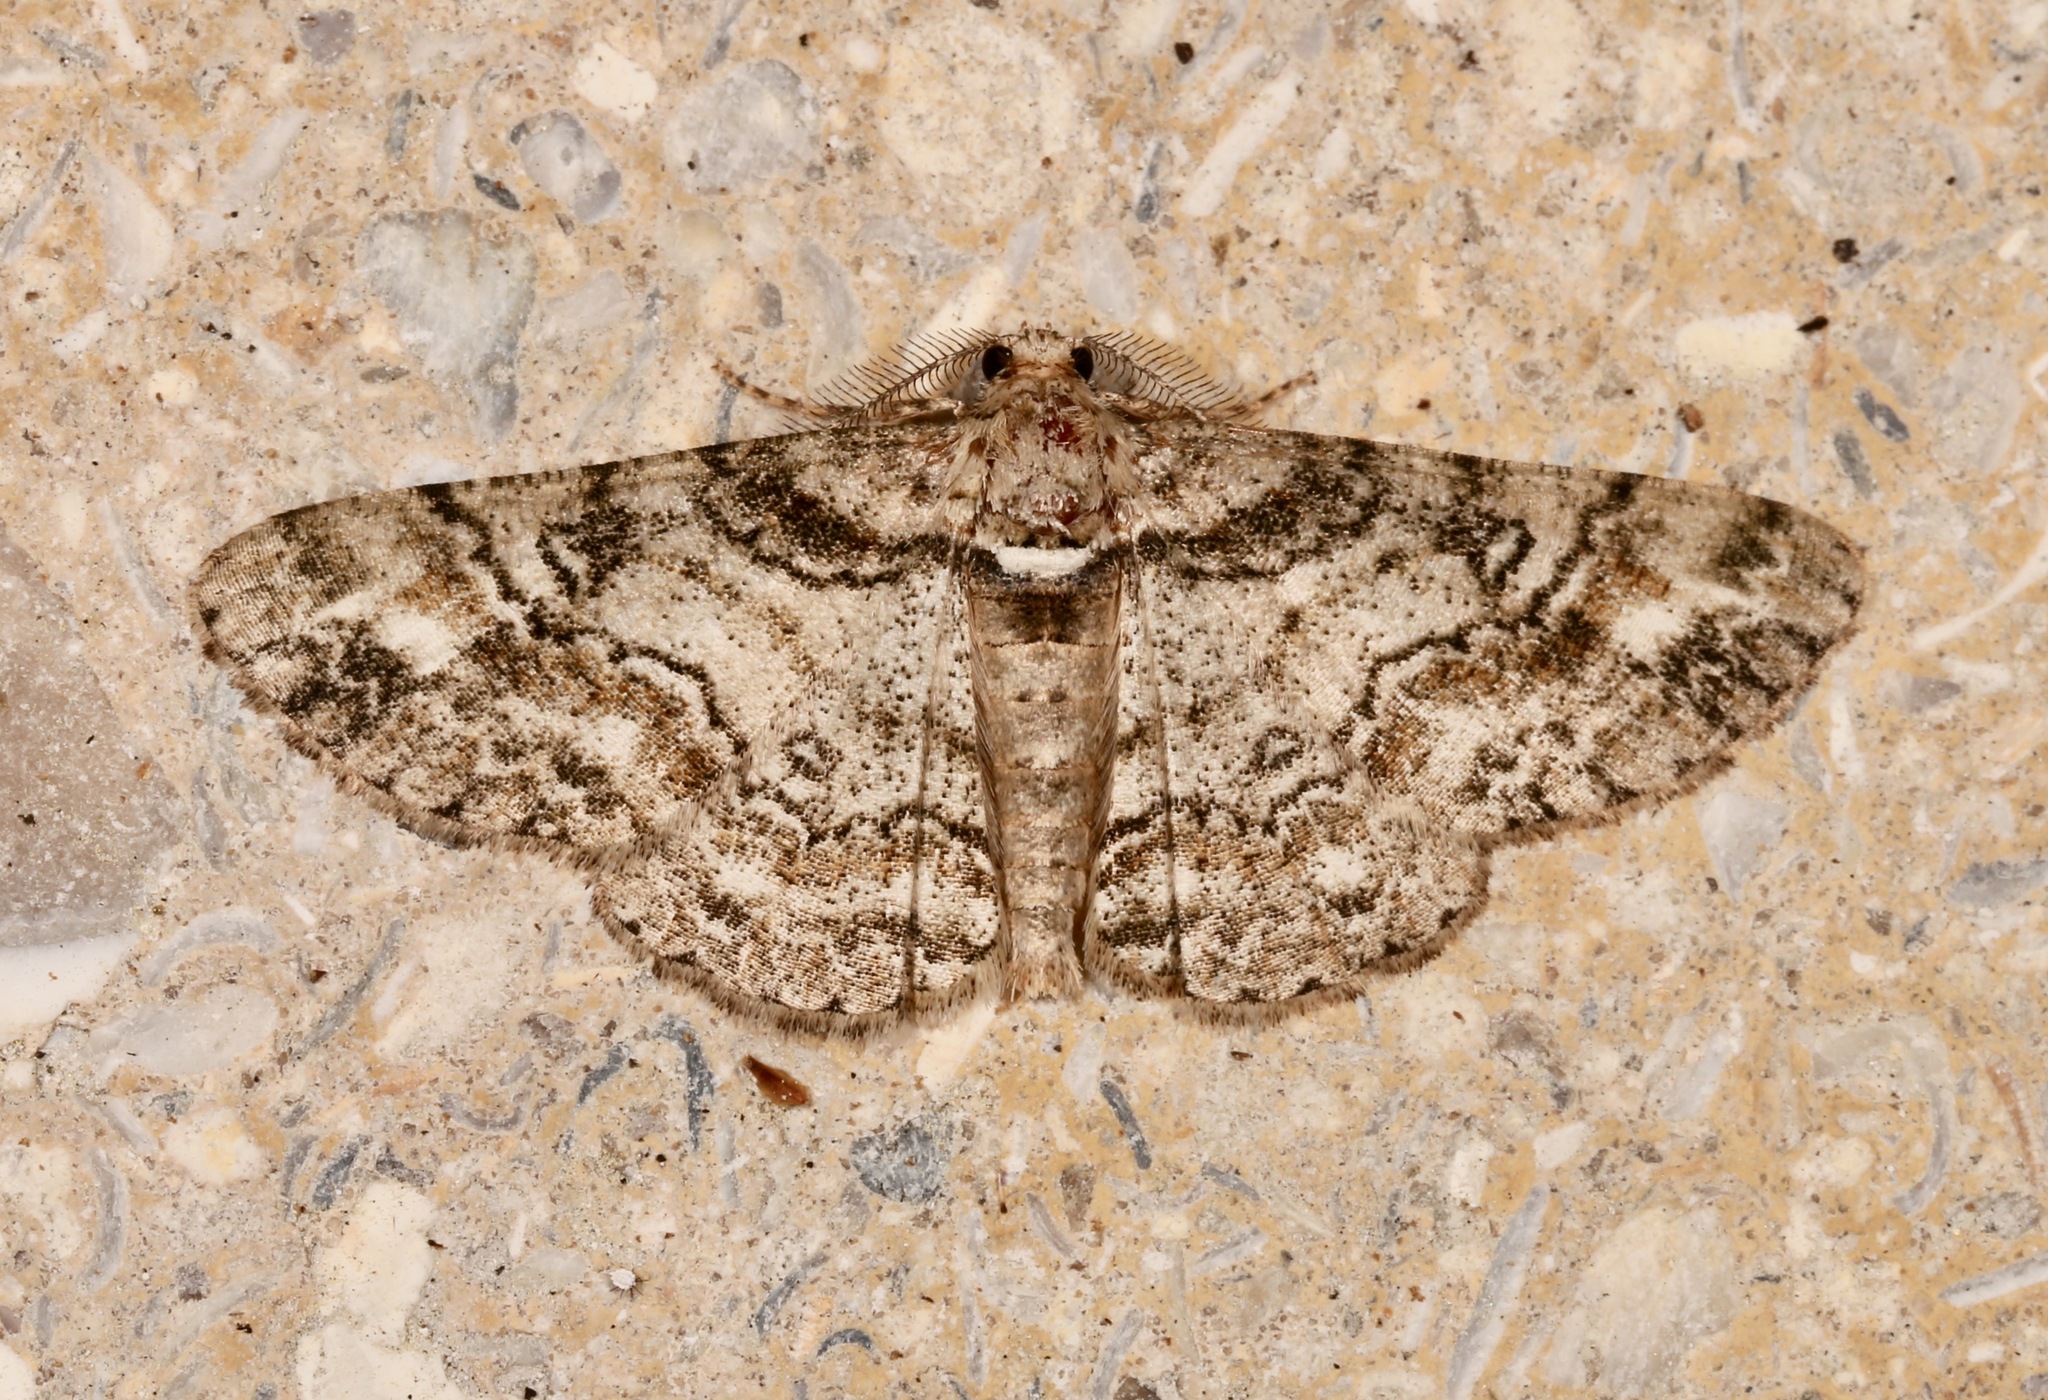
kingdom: Animalia
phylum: Arthropoda
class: Insecta
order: Lepidoptera
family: Geometridae
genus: Cleora
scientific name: Cleora sublunaria
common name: Double-lined gray
